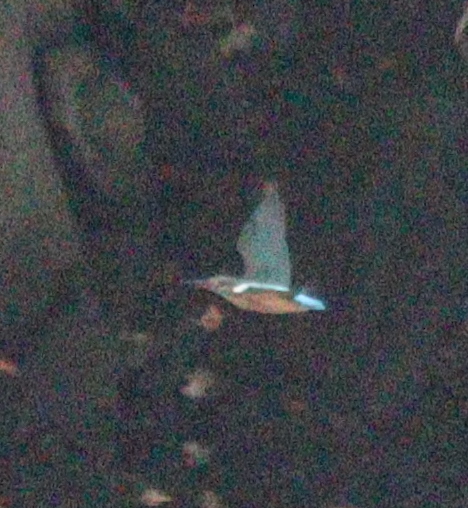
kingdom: Animalia
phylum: Chordata
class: Aves
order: Coraciiformes
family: Alcedinidae
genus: Alcedo
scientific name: Alcedo atthis
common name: Common kingfisher
